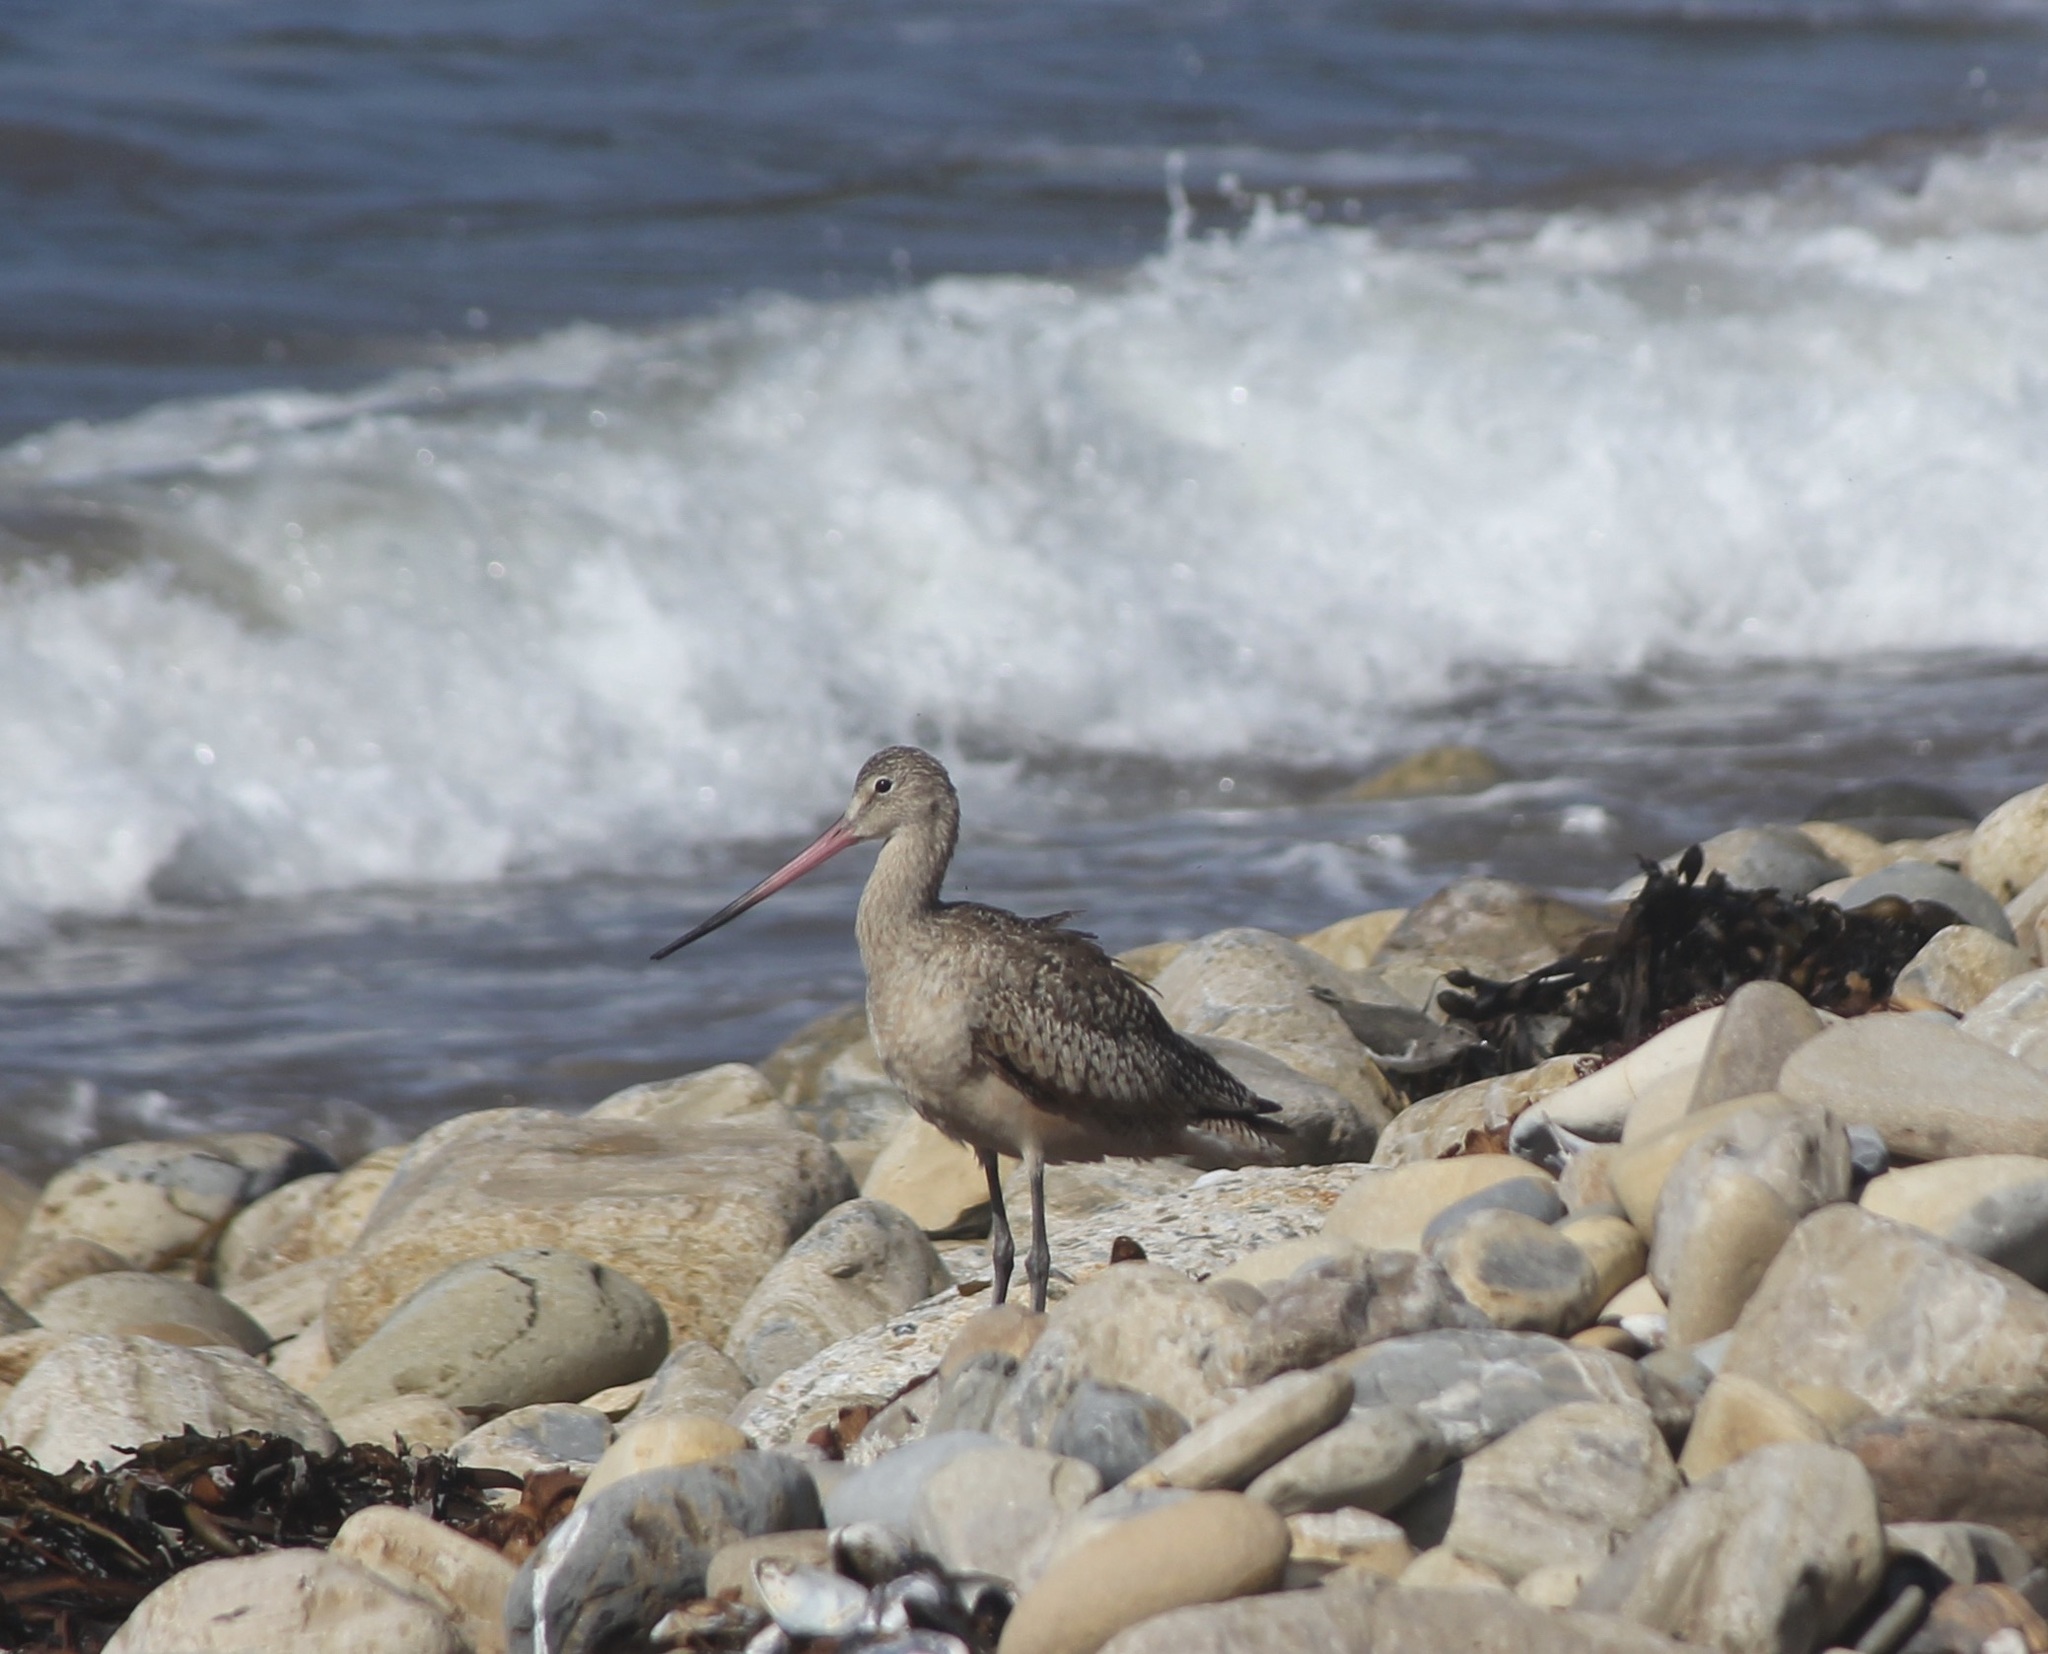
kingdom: Animalia
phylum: Chordata
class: Aves
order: Charadriiformes
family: Scolopacidae
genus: Limosa
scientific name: Limosa fedoa
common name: Marbled godwit
